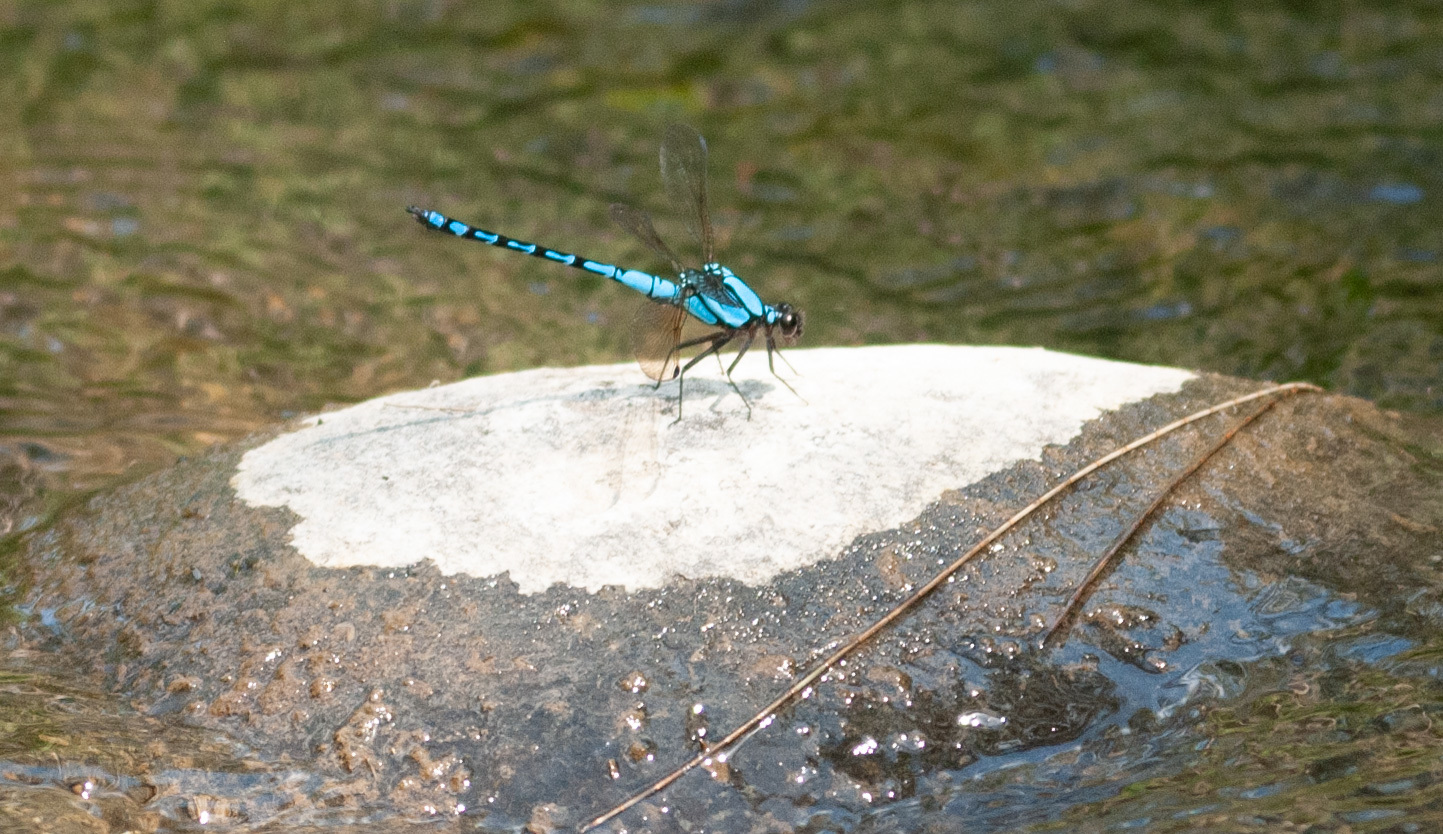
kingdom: Animalia
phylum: Arthropoda
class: Insecta
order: Odonata
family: Lestoideidae
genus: Diphlebia
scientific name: Diphlebia nymphoides
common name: Arrowhead rockmaster
